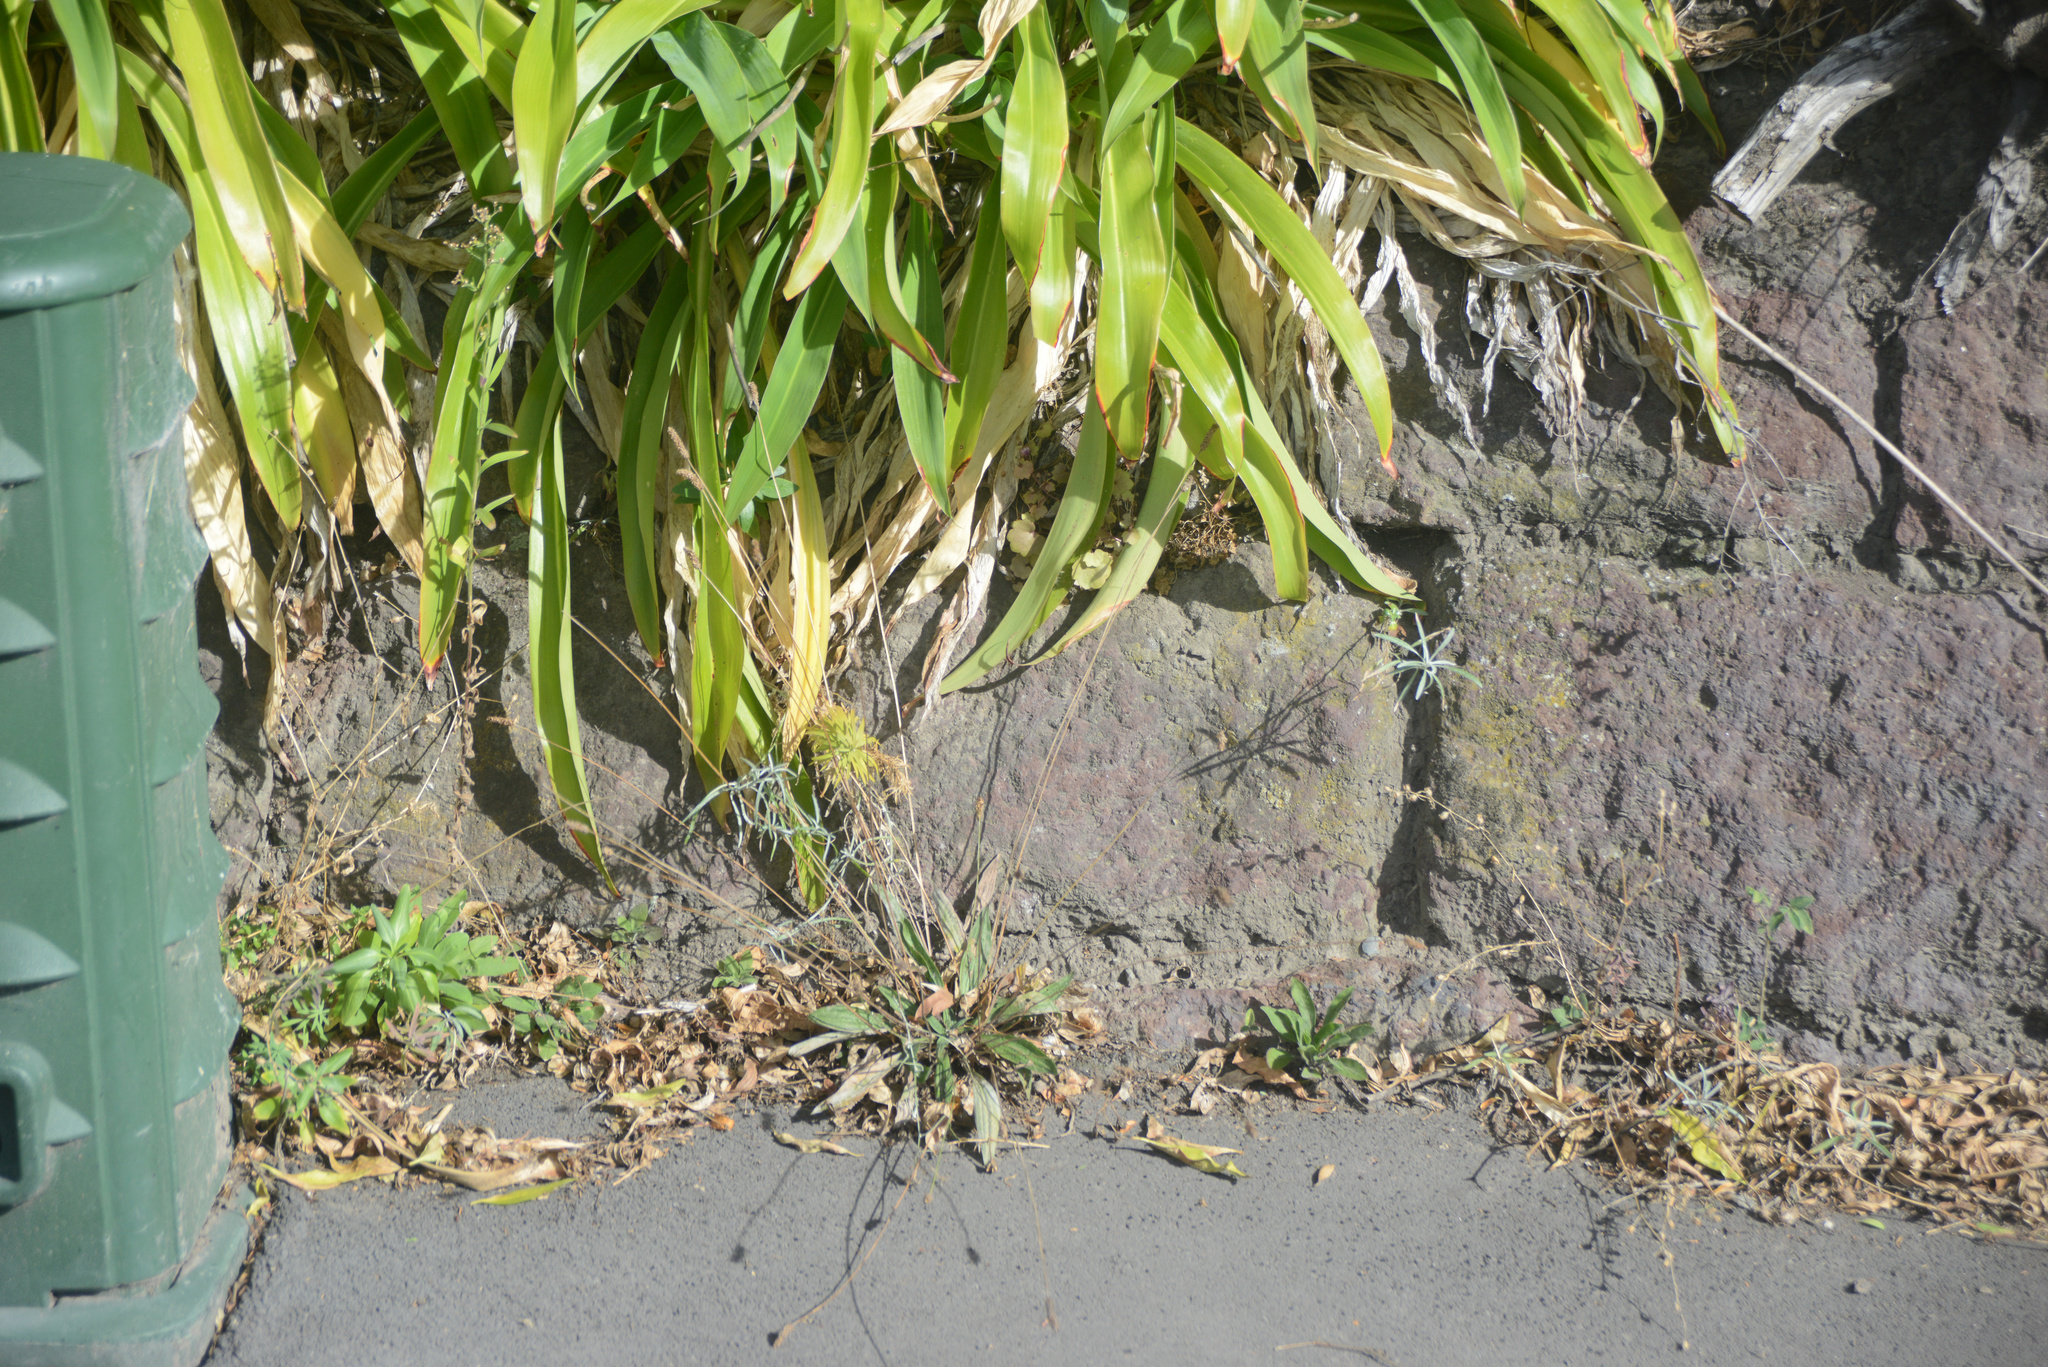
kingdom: Plantae
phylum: Tracheophyta
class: Magnoliopsida
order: Asterales
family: Asteraceae
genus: Senecio
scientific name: Senecio quadridentatus
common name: Cotton fireweed
